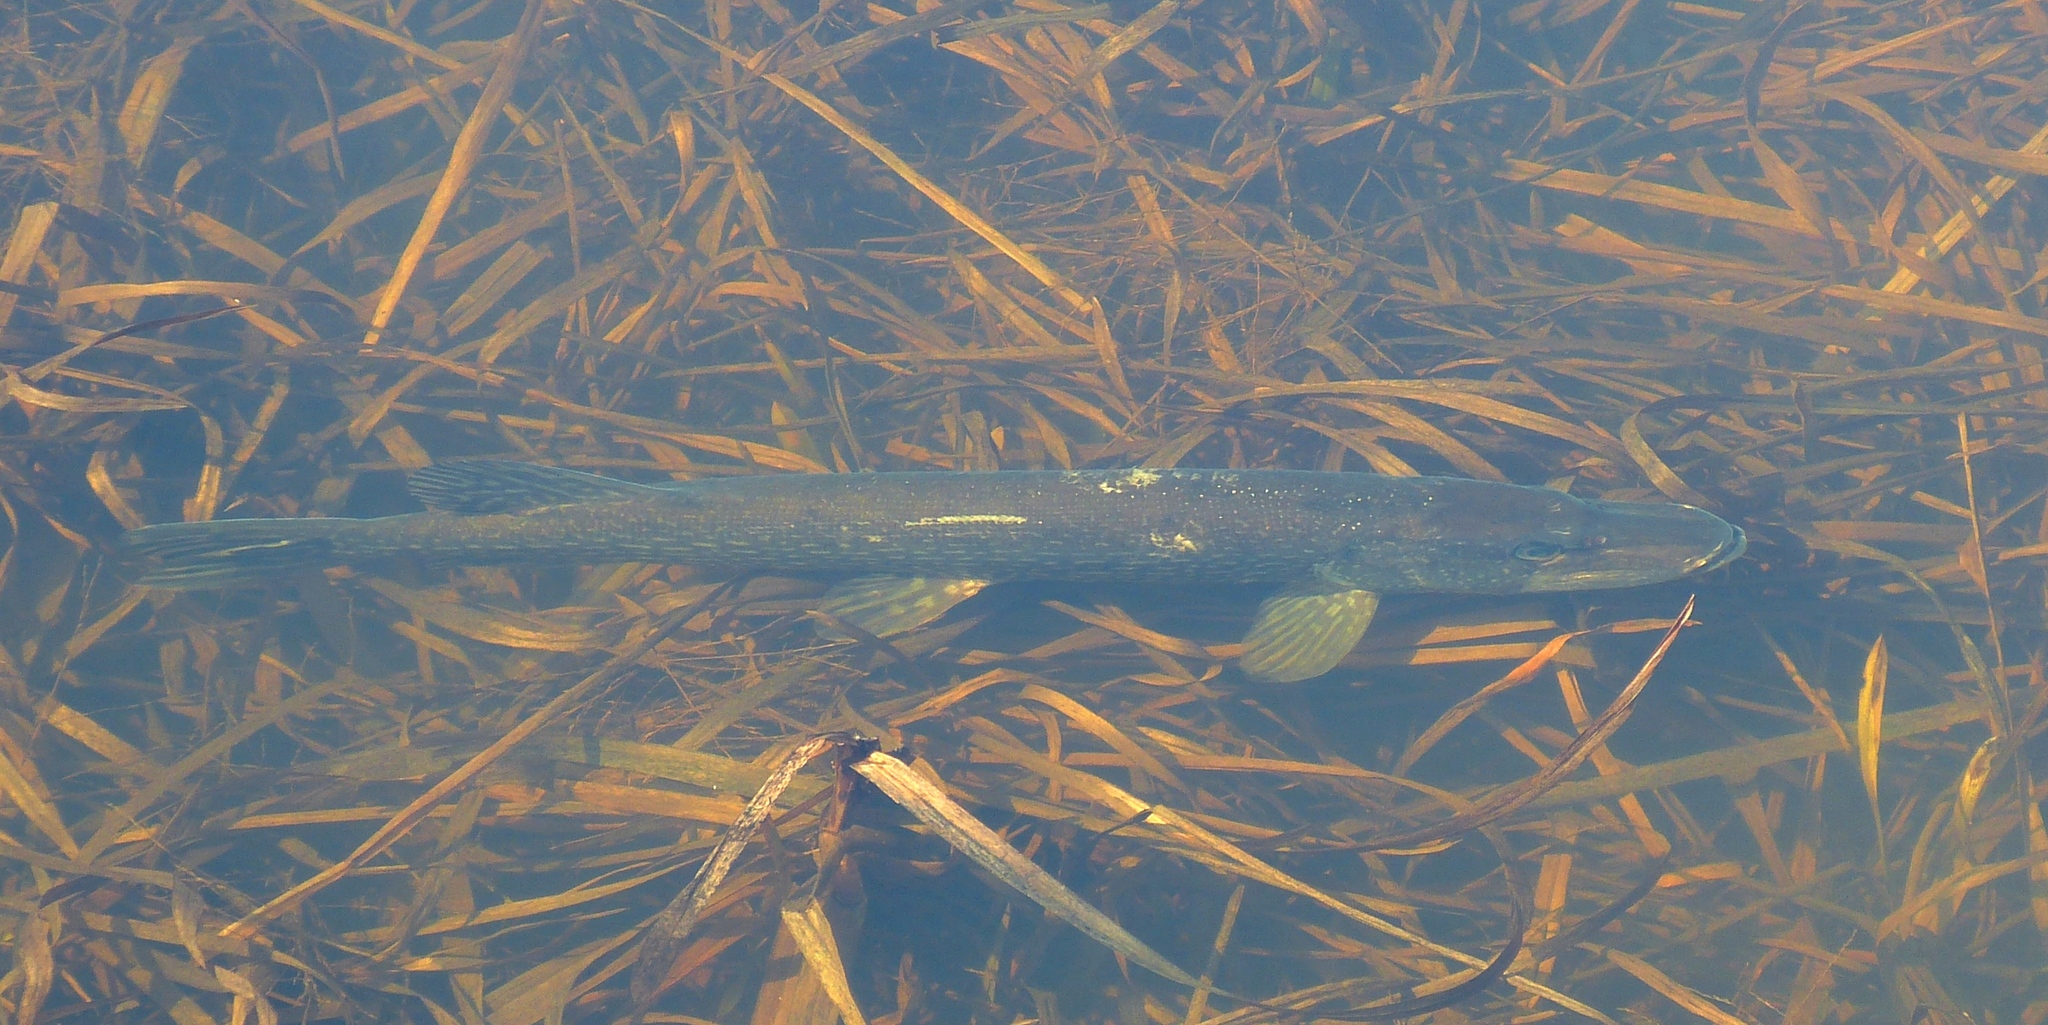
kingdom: Animalia
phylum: Chordata
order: Esociformes
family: Esocidae
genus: Esox
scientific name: Esox lucius
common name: Northern pike
